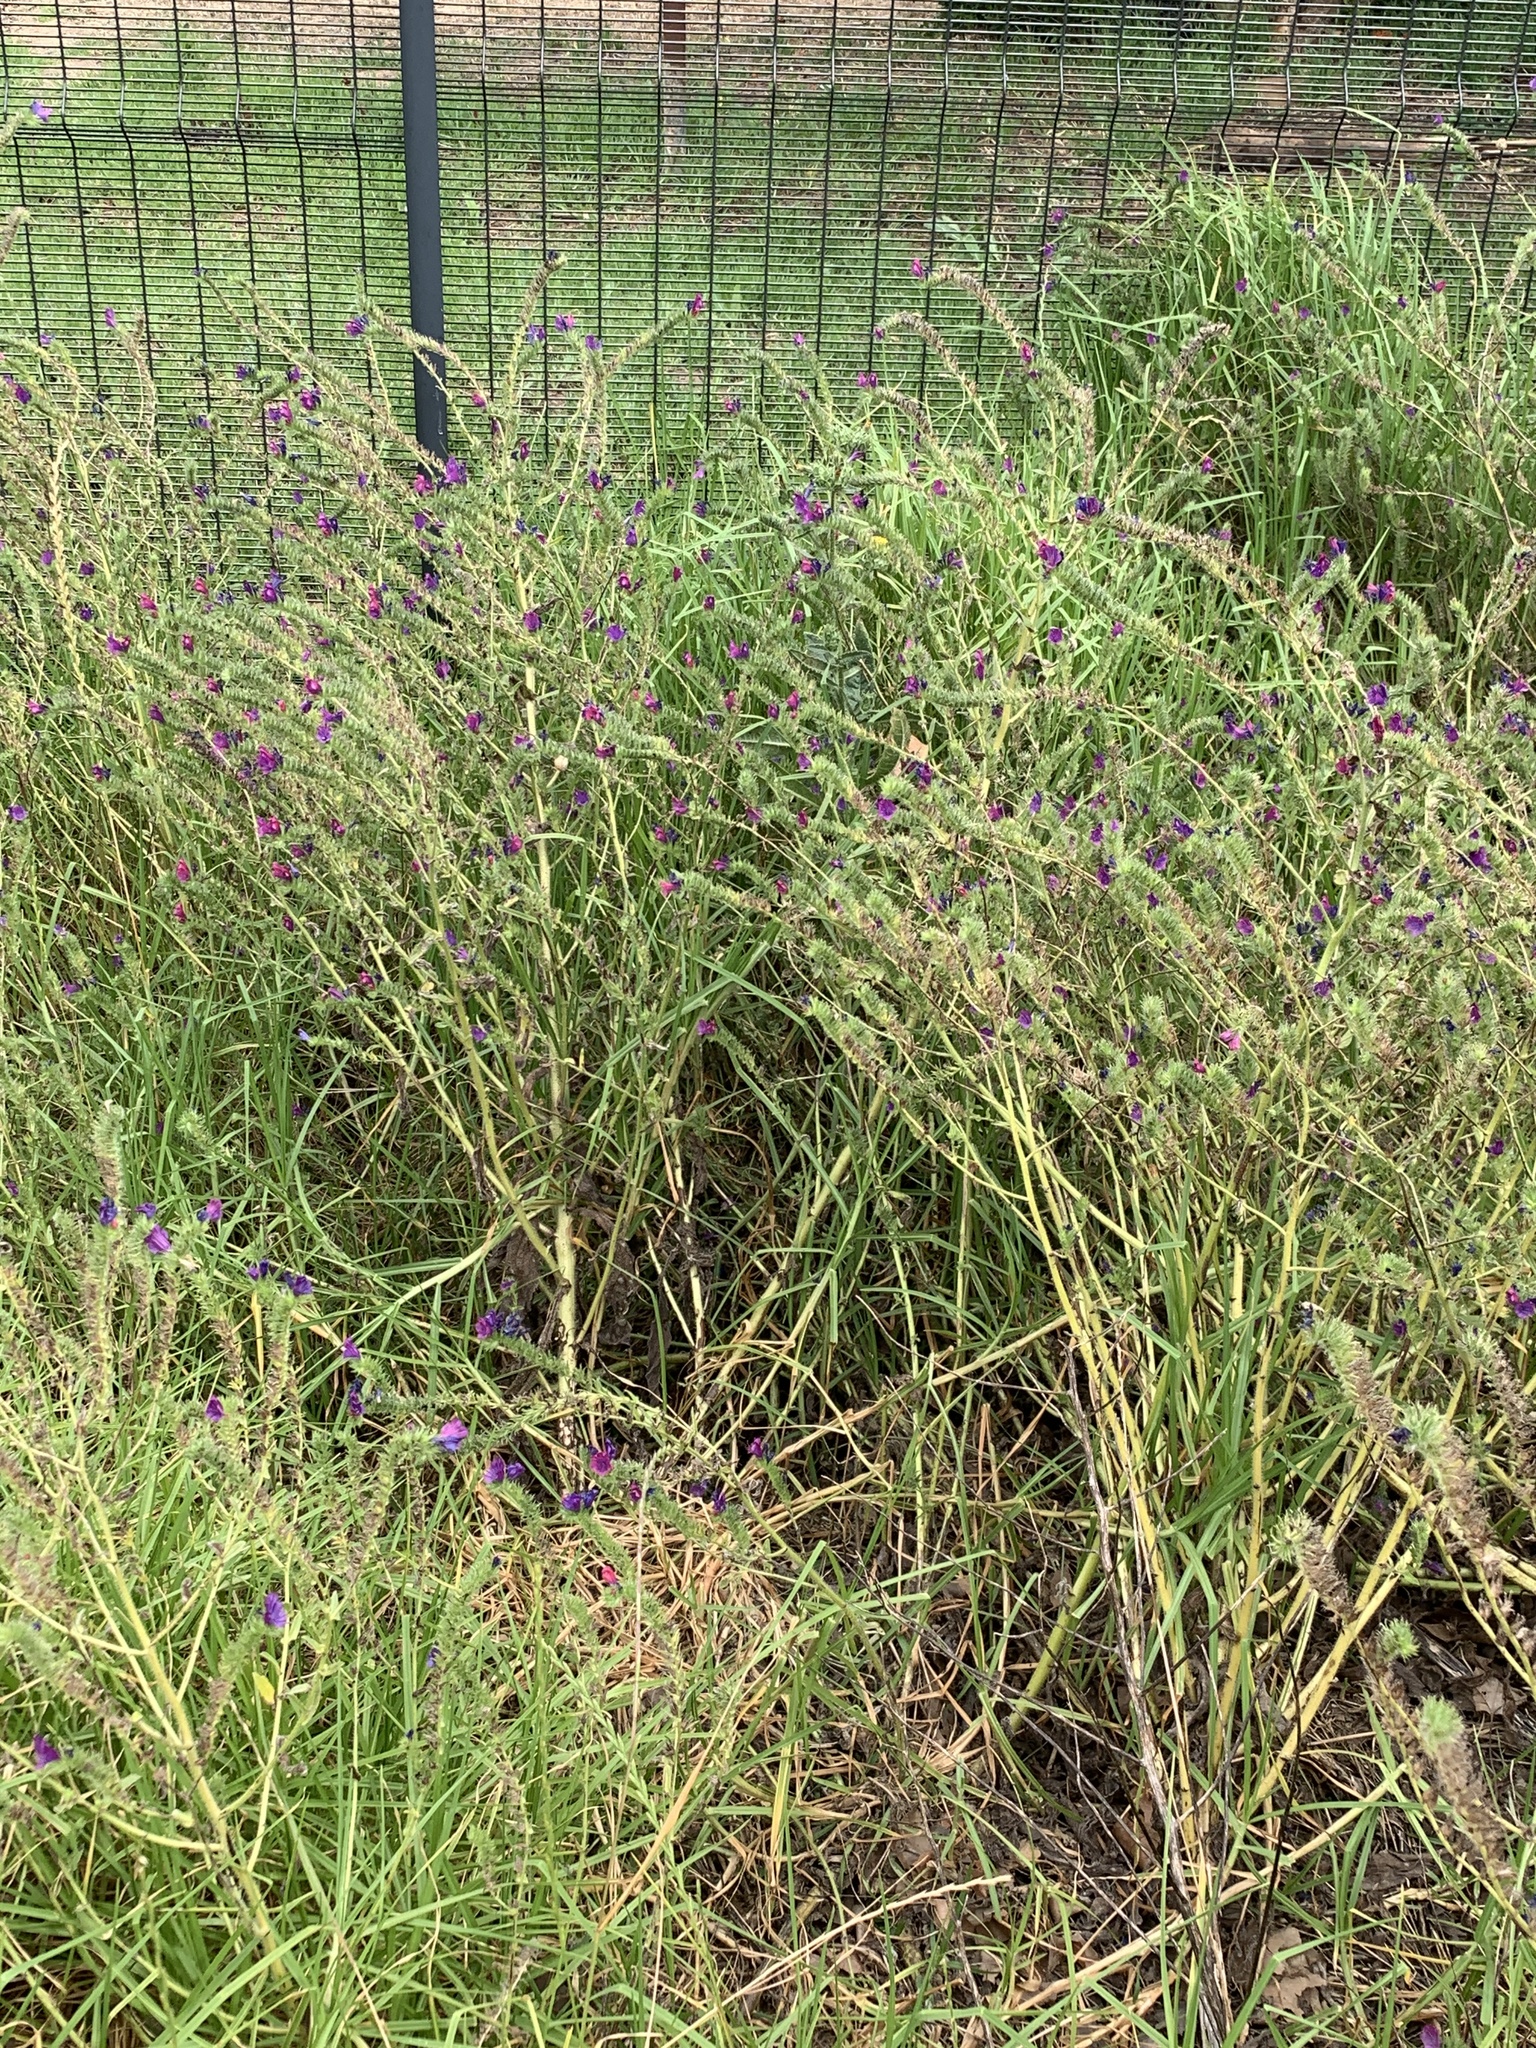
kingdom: Plantae
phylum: Tracheophyta
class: Magnoliopsida
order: Boraginales
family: Boraginaceae
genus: Echium
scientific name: Echium plantagineum
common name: Purple viper's-bugloss
